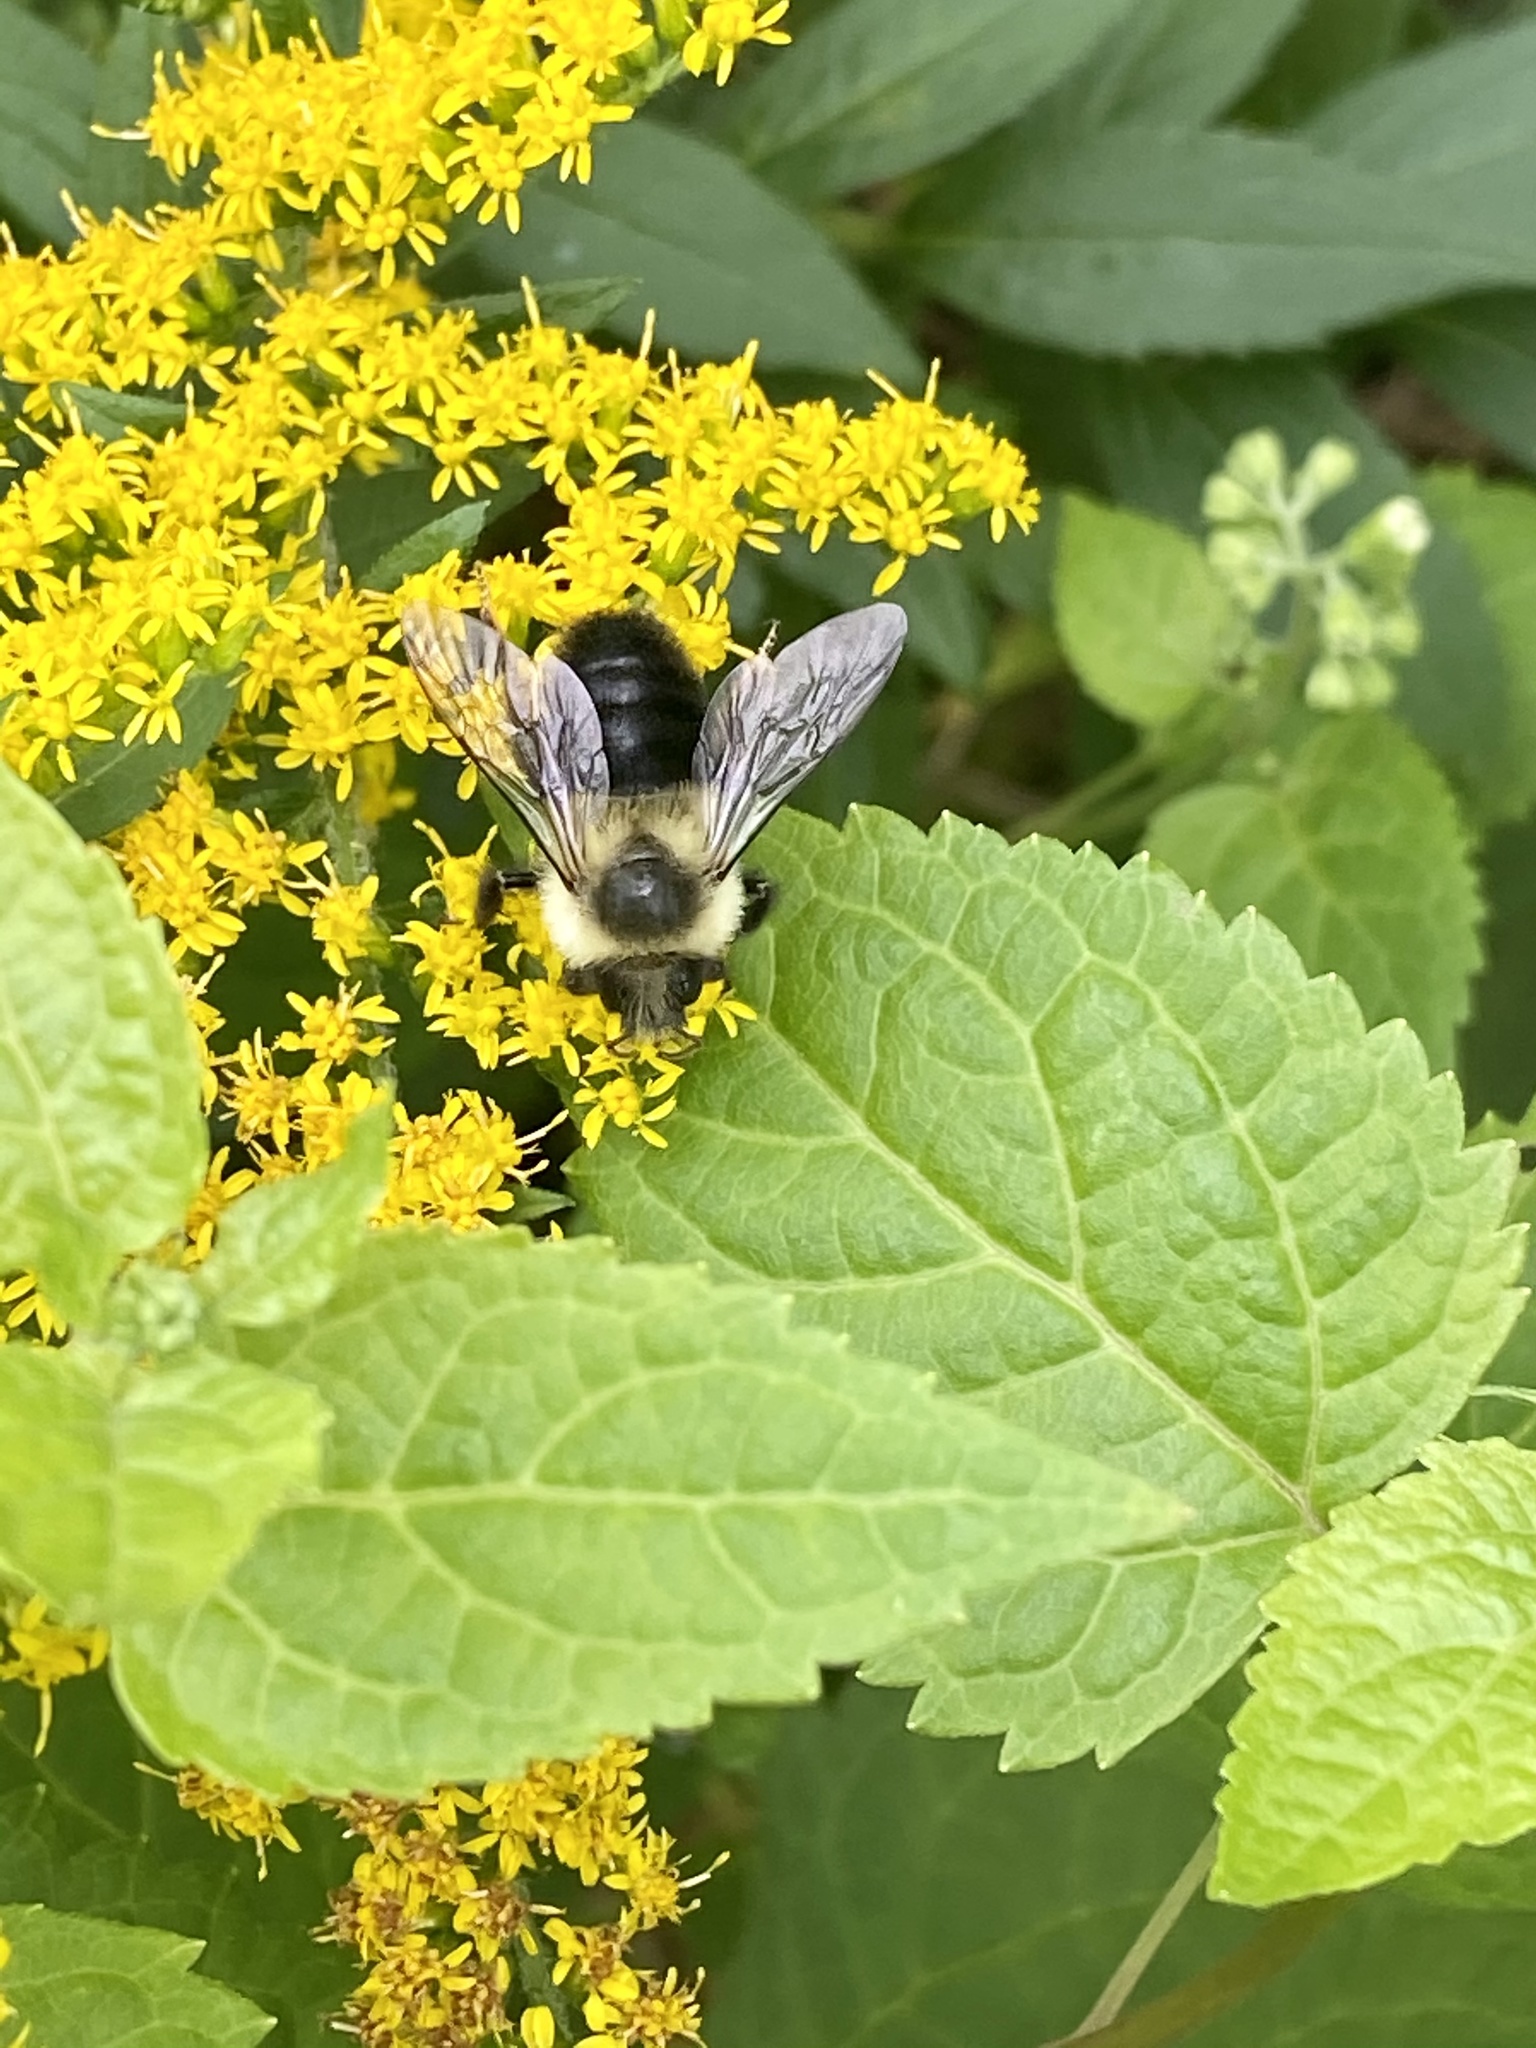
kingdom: Animalia
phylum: Arthropoda
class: Insecta
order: Hymenoptera
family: Apidae
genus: Bombus
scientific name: Bombus impatiens
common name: Common eastern bumble bee
